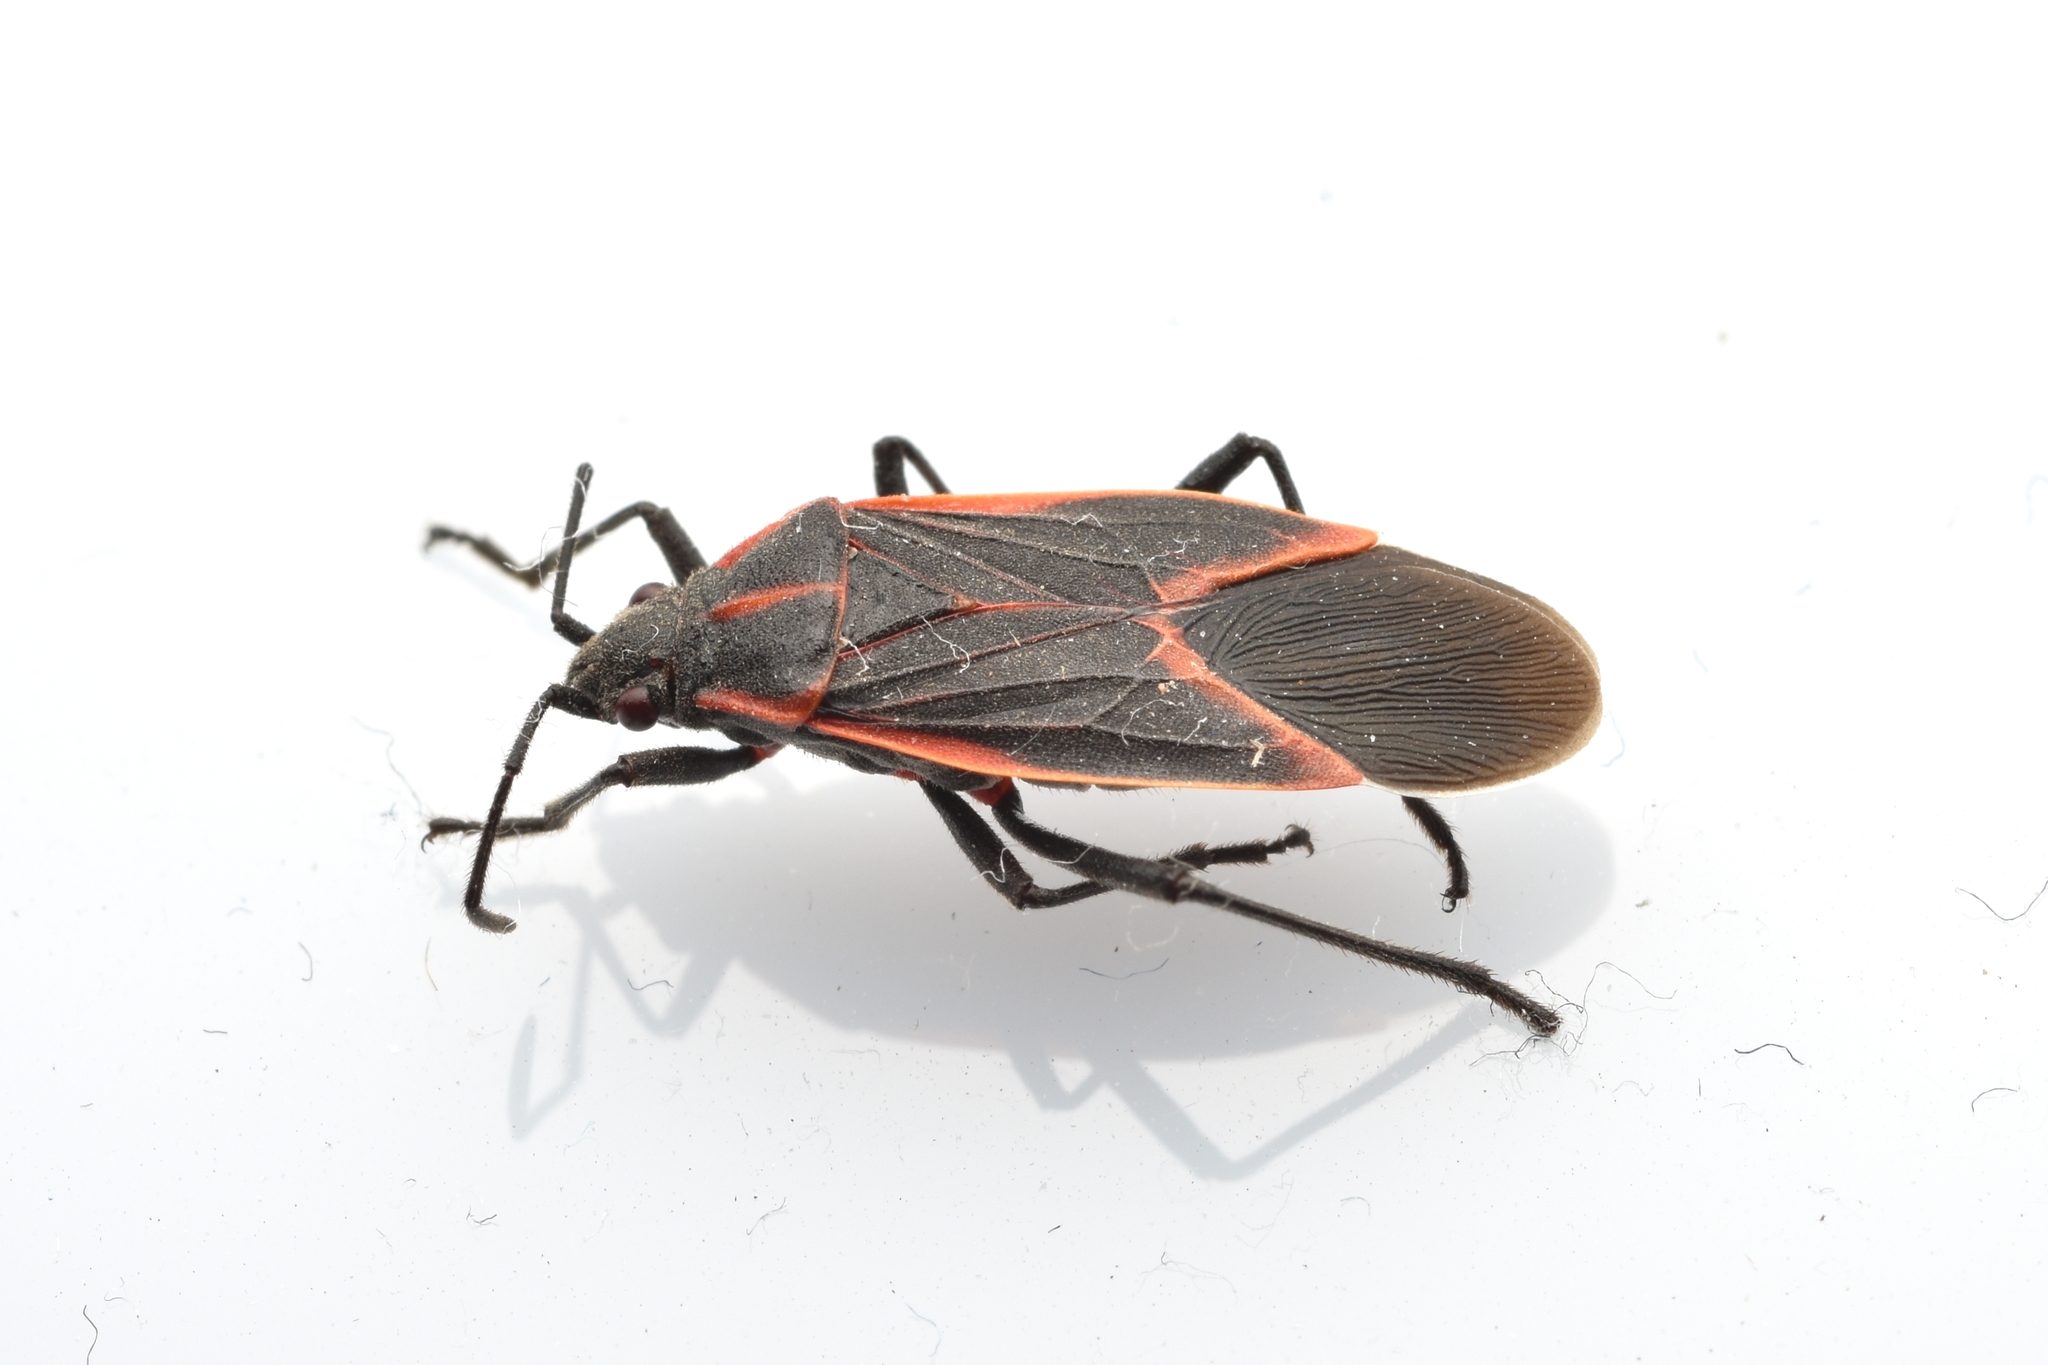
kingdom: Animalia
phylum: Arthropoda
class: Insecta
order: Hemiptera
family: Rhopalidae
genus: Boisea
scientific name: Boisea trivittata
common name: Boxelder bug
